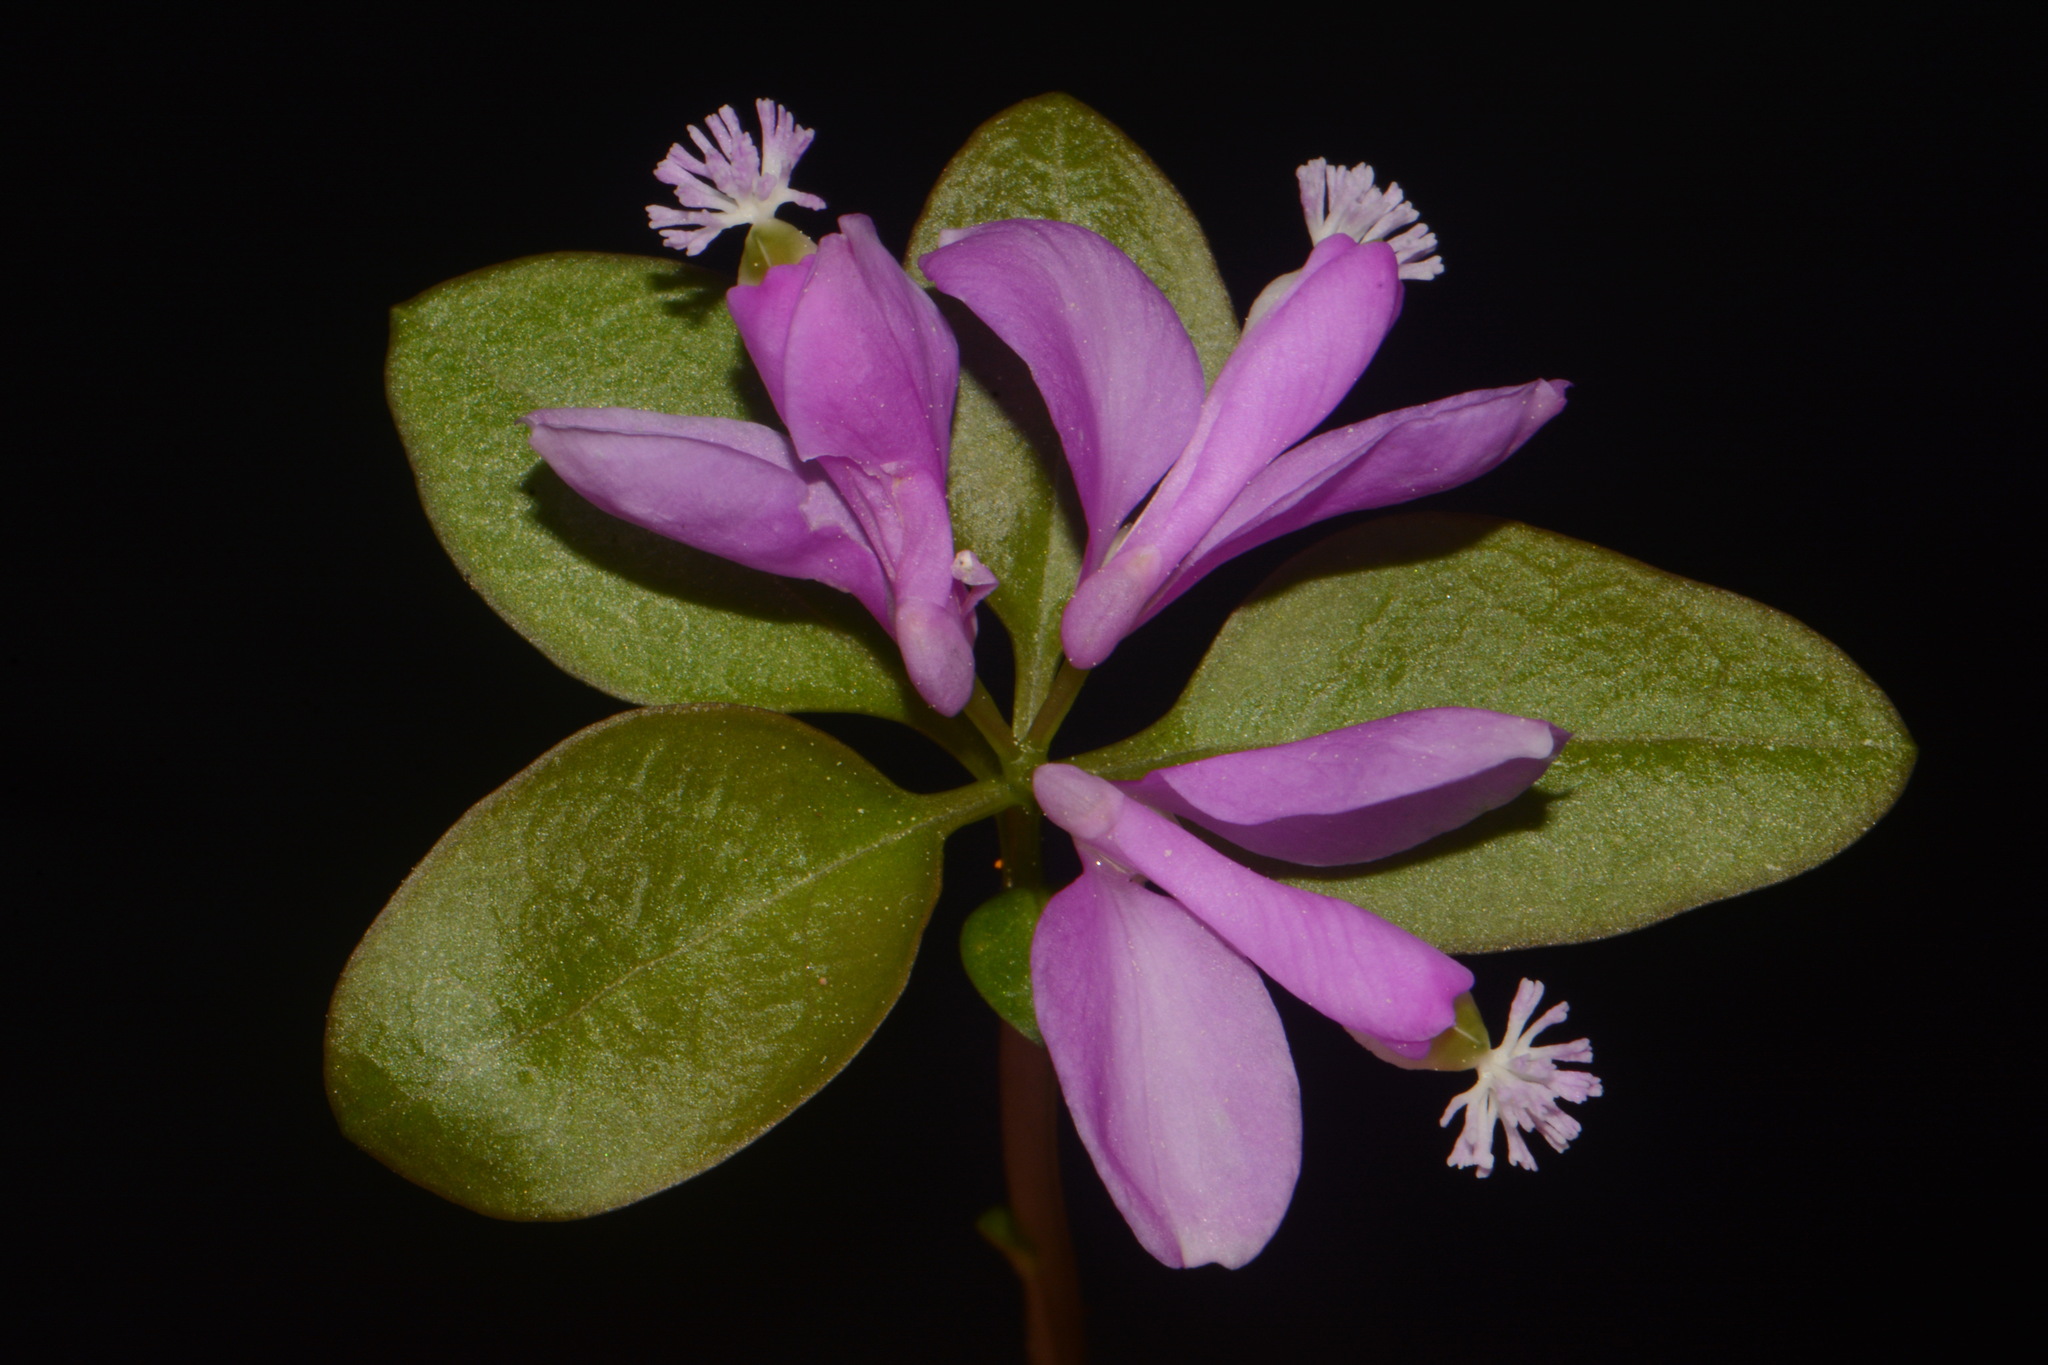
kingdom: Plantae
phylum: Tracheophyta
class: Magnoliopsida
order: Fabales
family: Polygalaceae
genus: Polygaloides
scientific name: Polygaloides paucifolia
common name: Bird-on-the-wing
